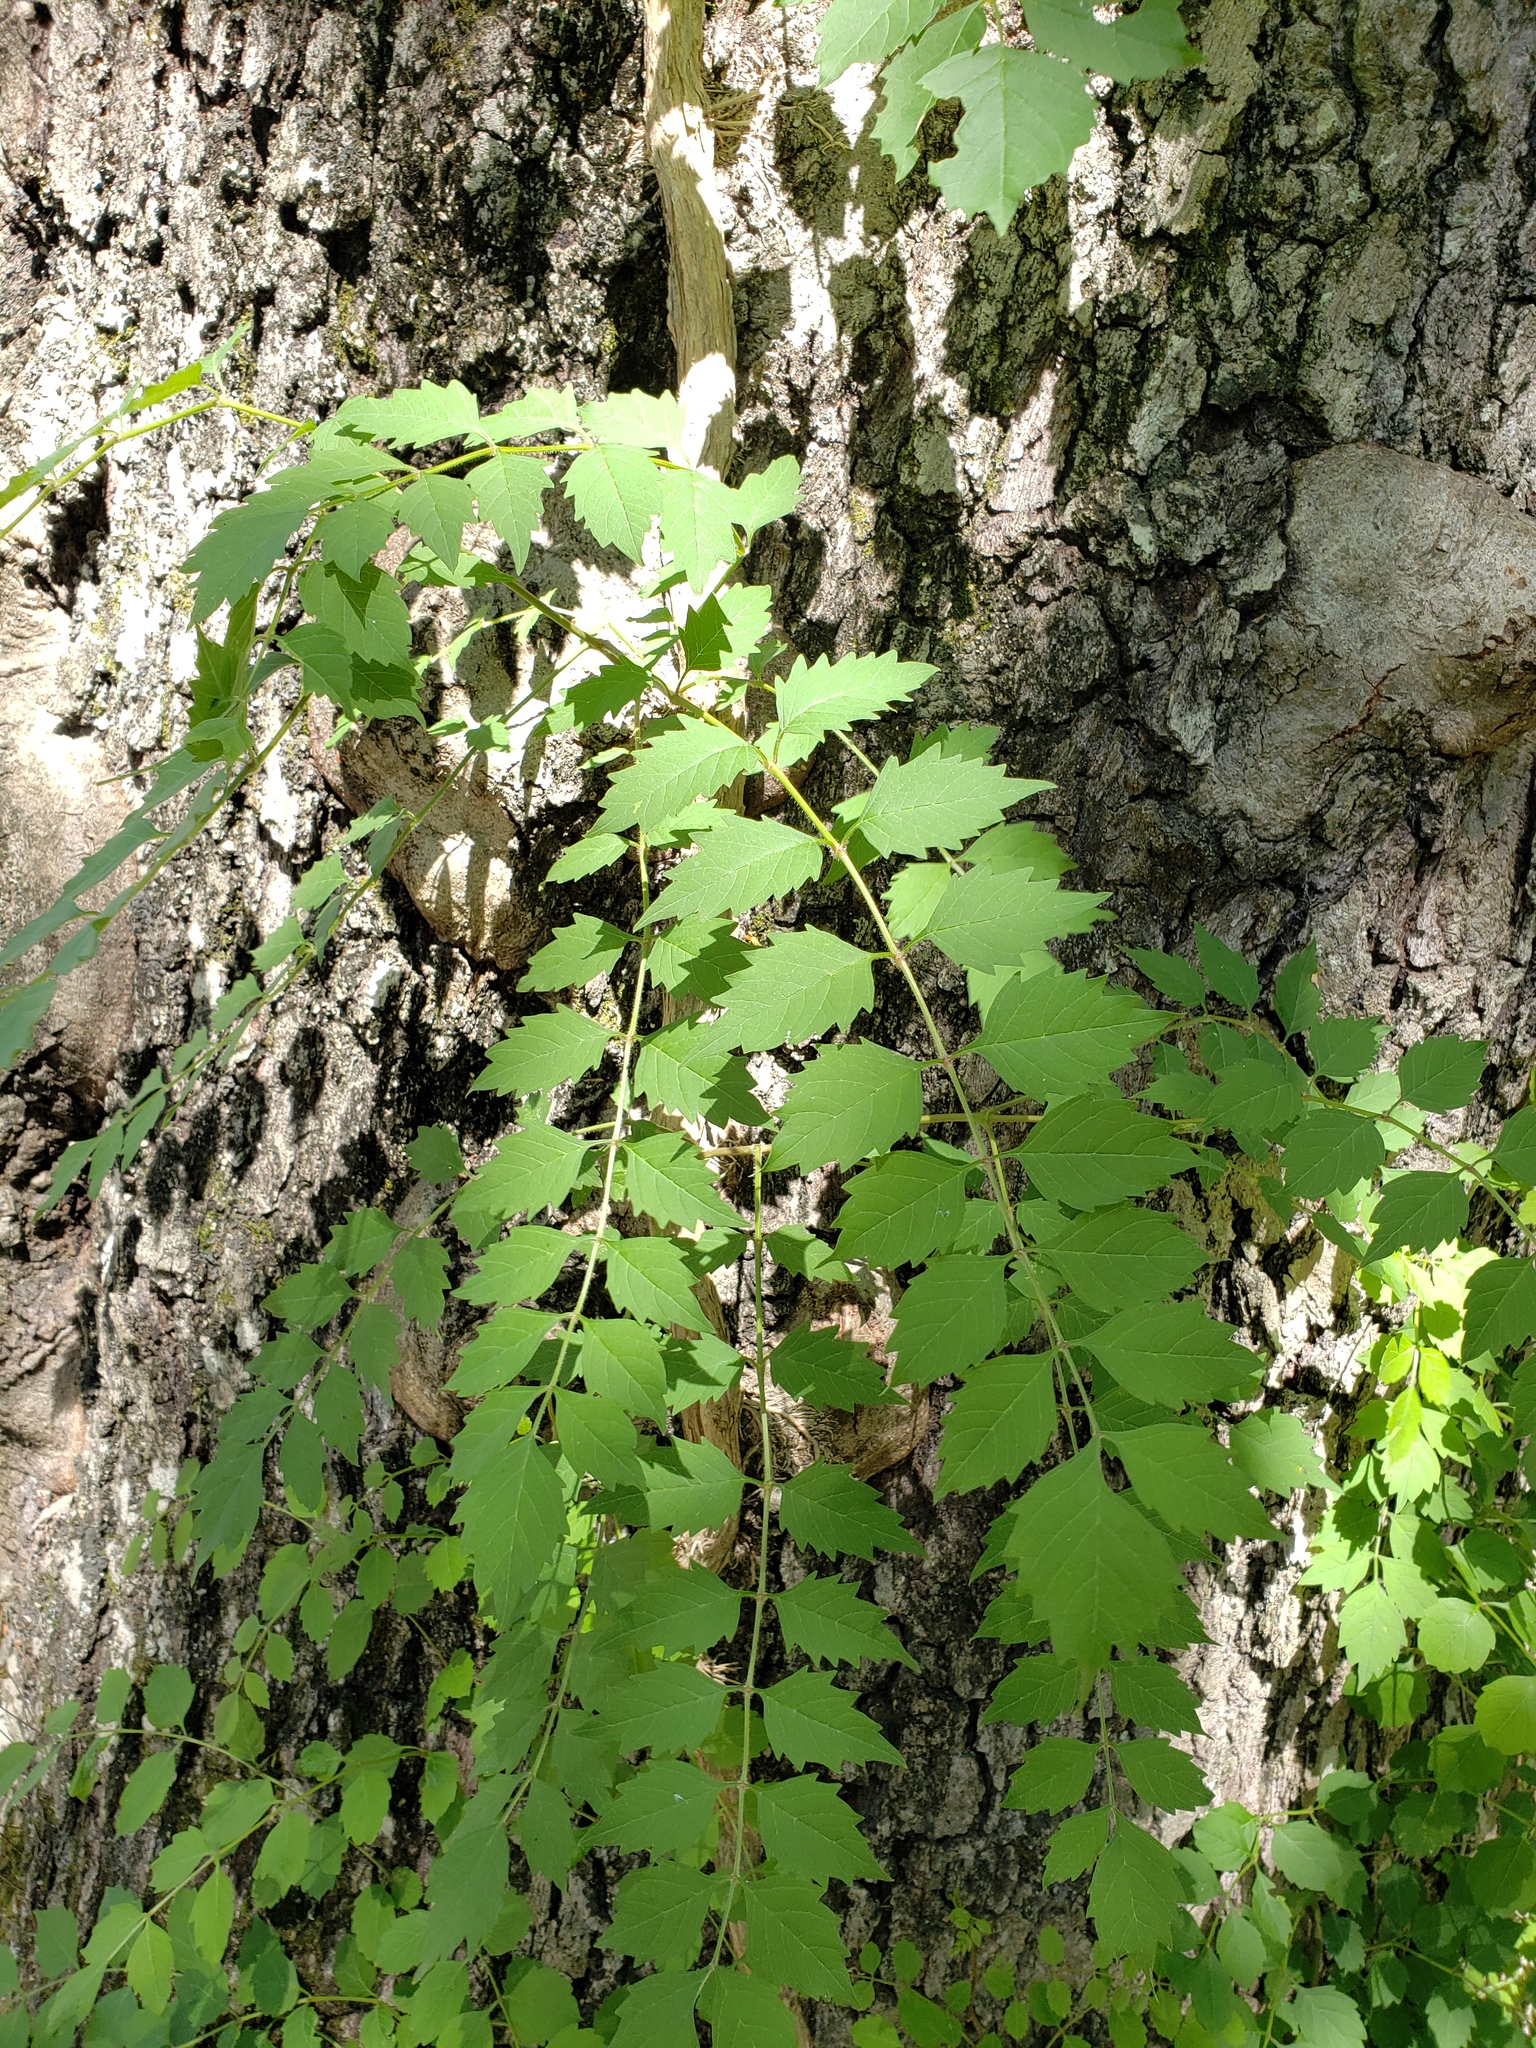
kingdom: Plantae
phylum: Tracheophyta
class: Magnoliopsida
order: Lamiales
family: Bignoniaceae
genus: Campsis
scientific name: Campsis radicans
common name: Trumpet-creeper
